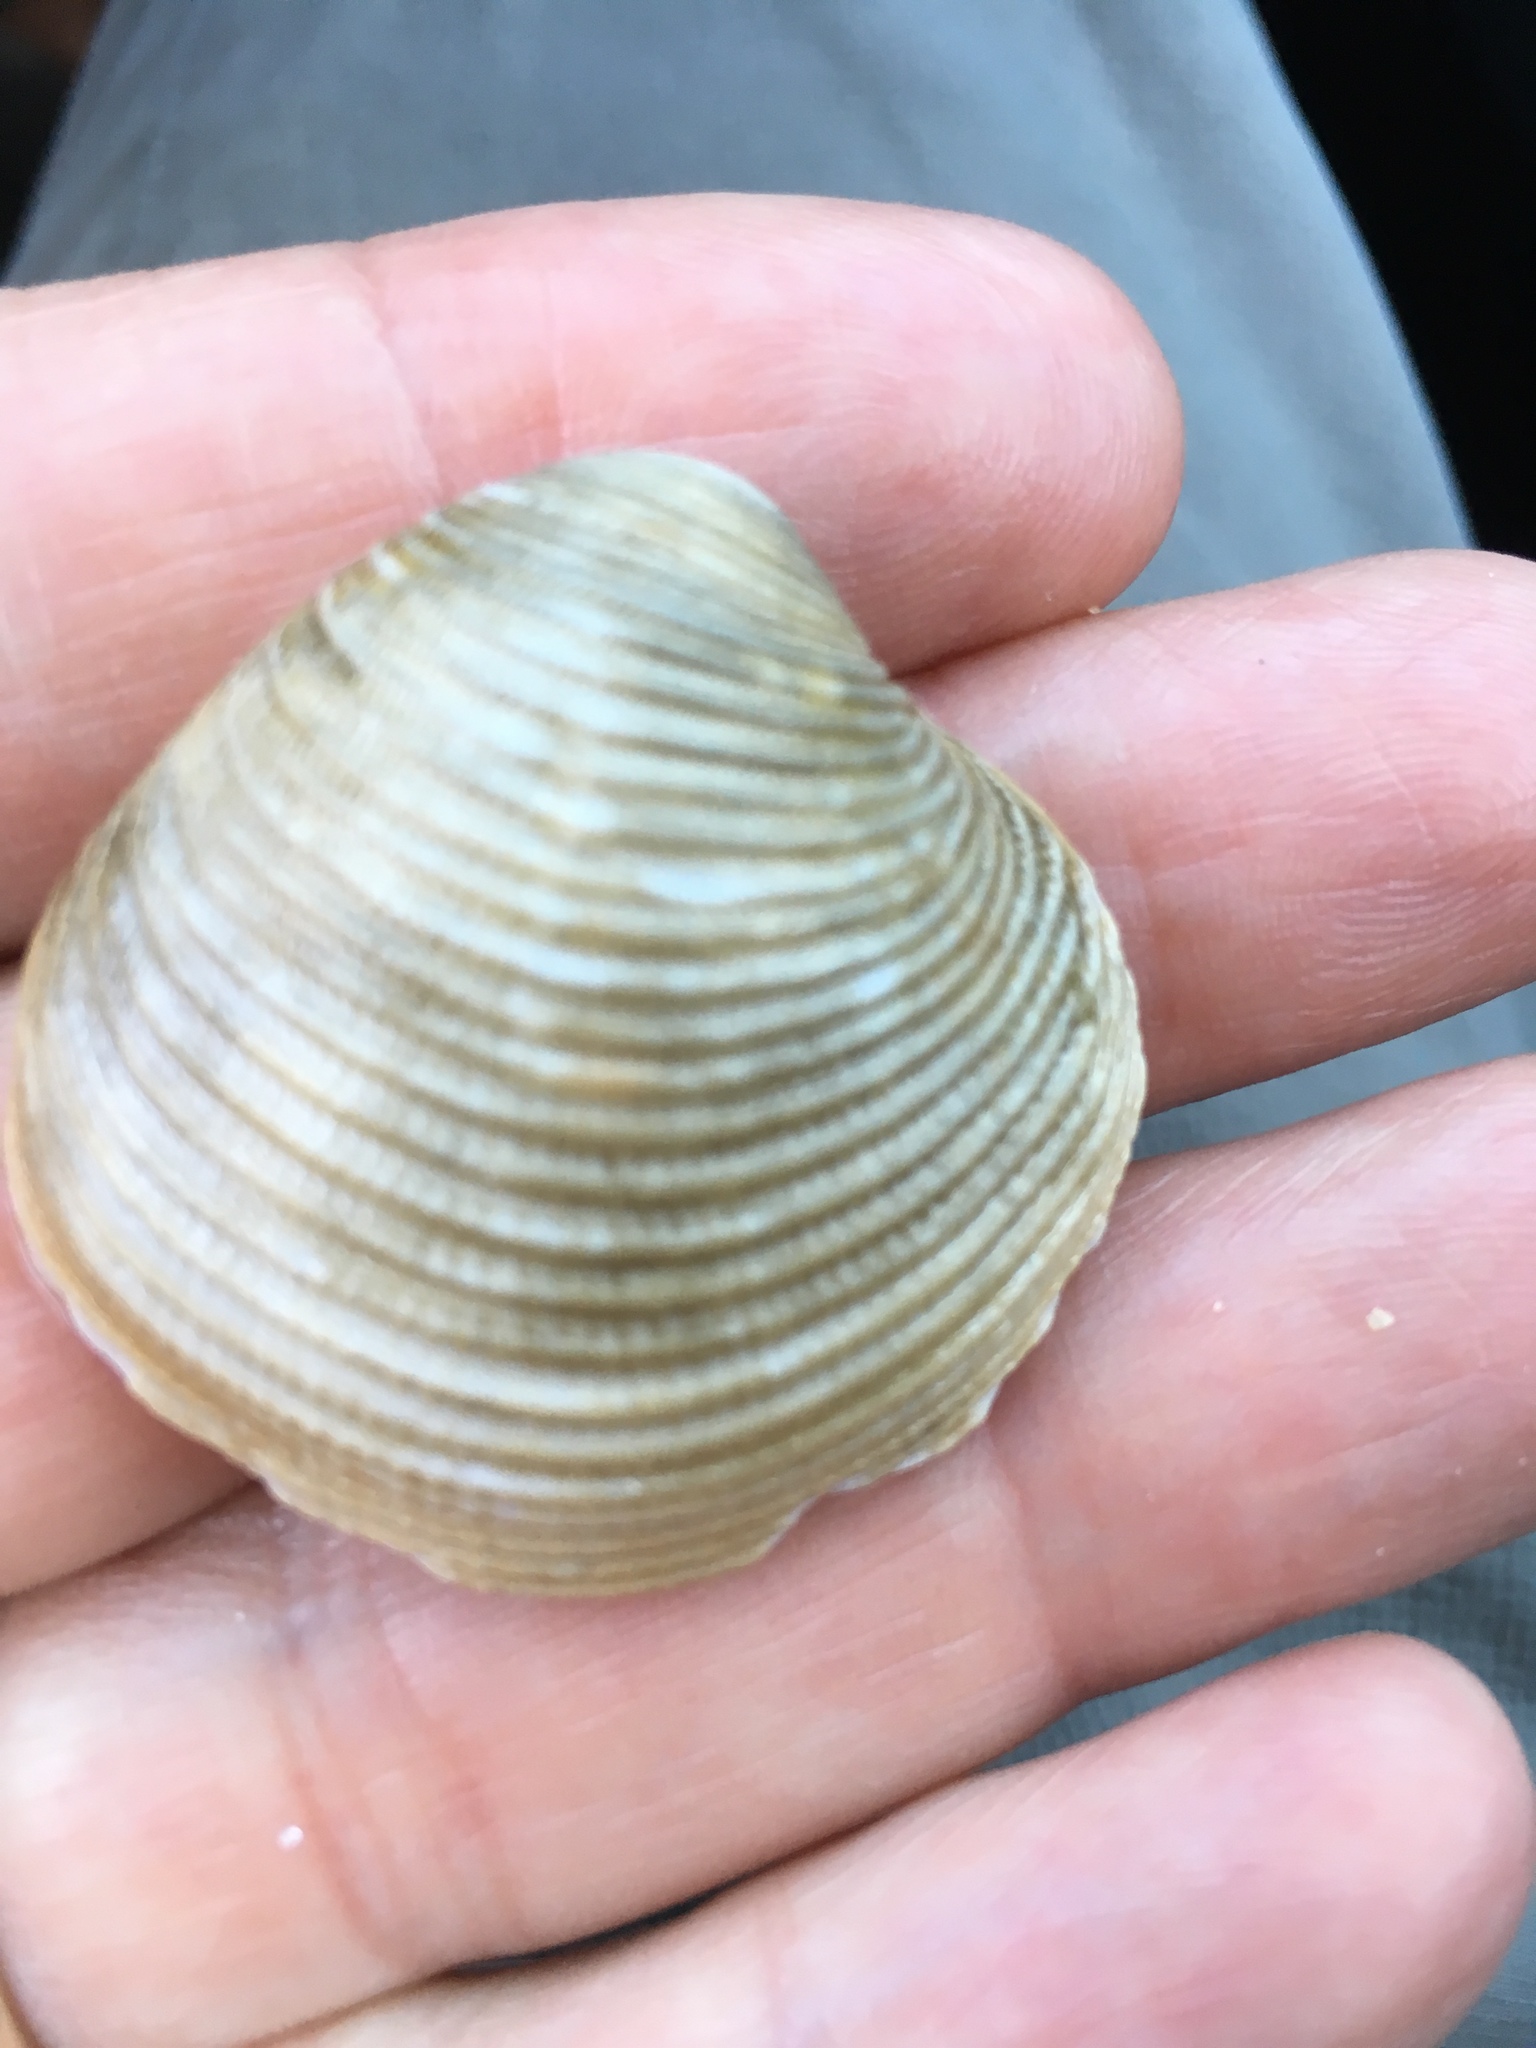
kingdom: Animalia
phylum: Mollusca
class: Bivalvia
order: Venerida
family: Veneridae
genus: Chionopsis
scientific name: Chionopsis intapurpurea
